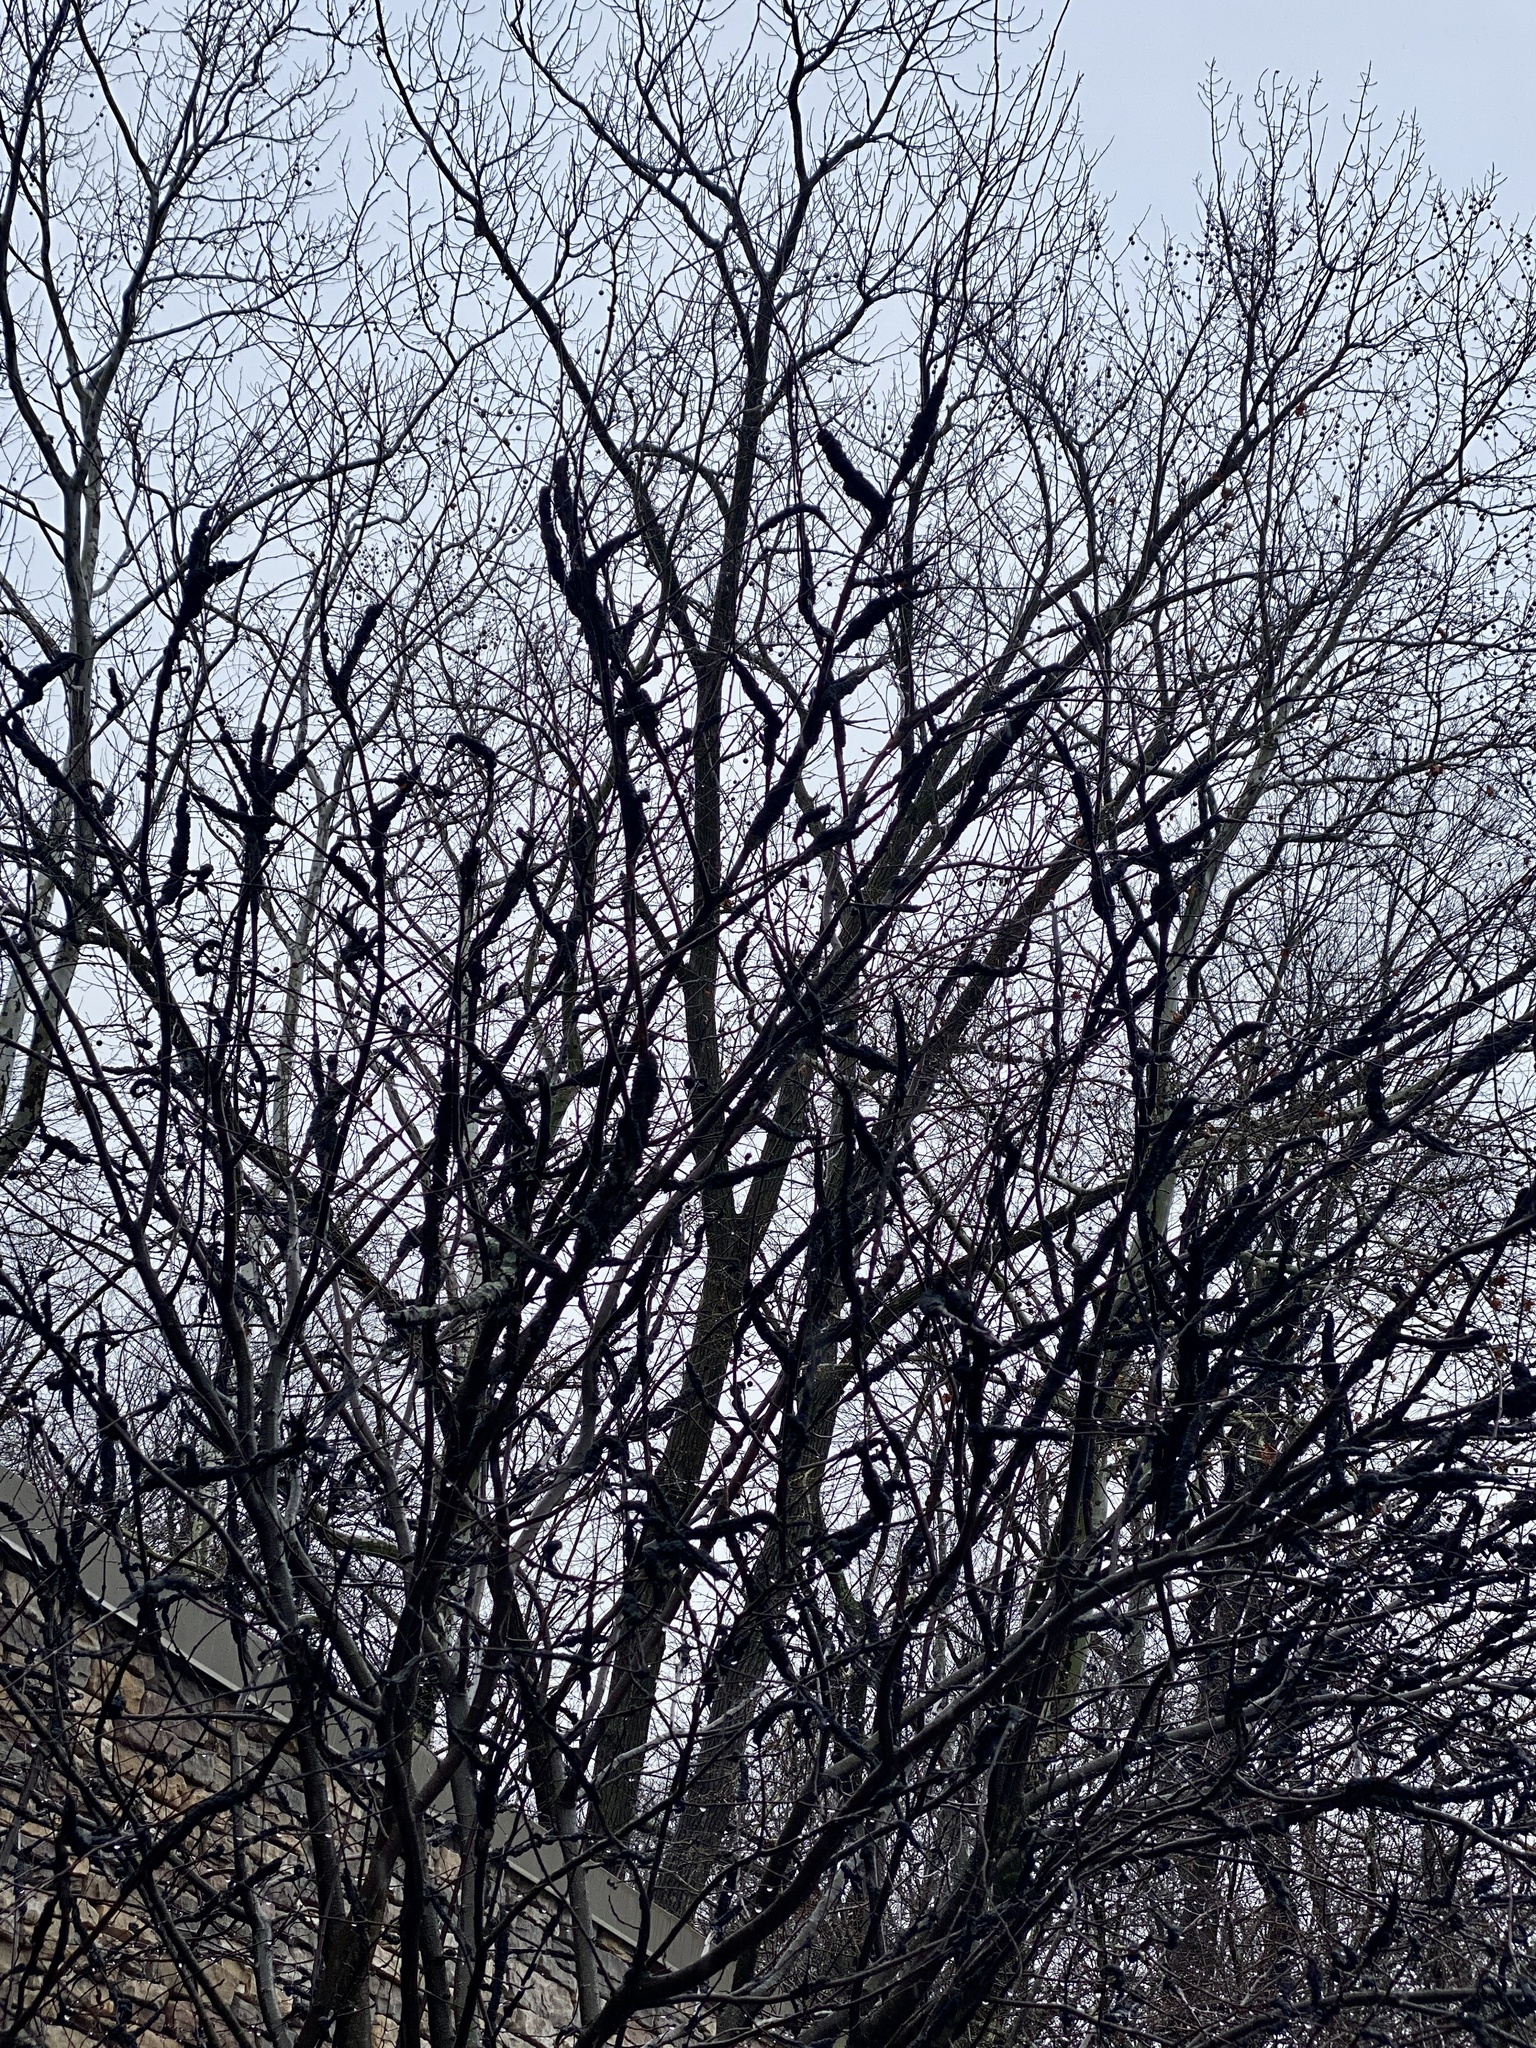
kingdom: Fungi
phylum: Ascomycota
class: Dothideomycetes
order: Venturiales
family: Venturiaceae
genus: Apiosporina
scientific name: Apiosporina morbosa
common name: Black knot
